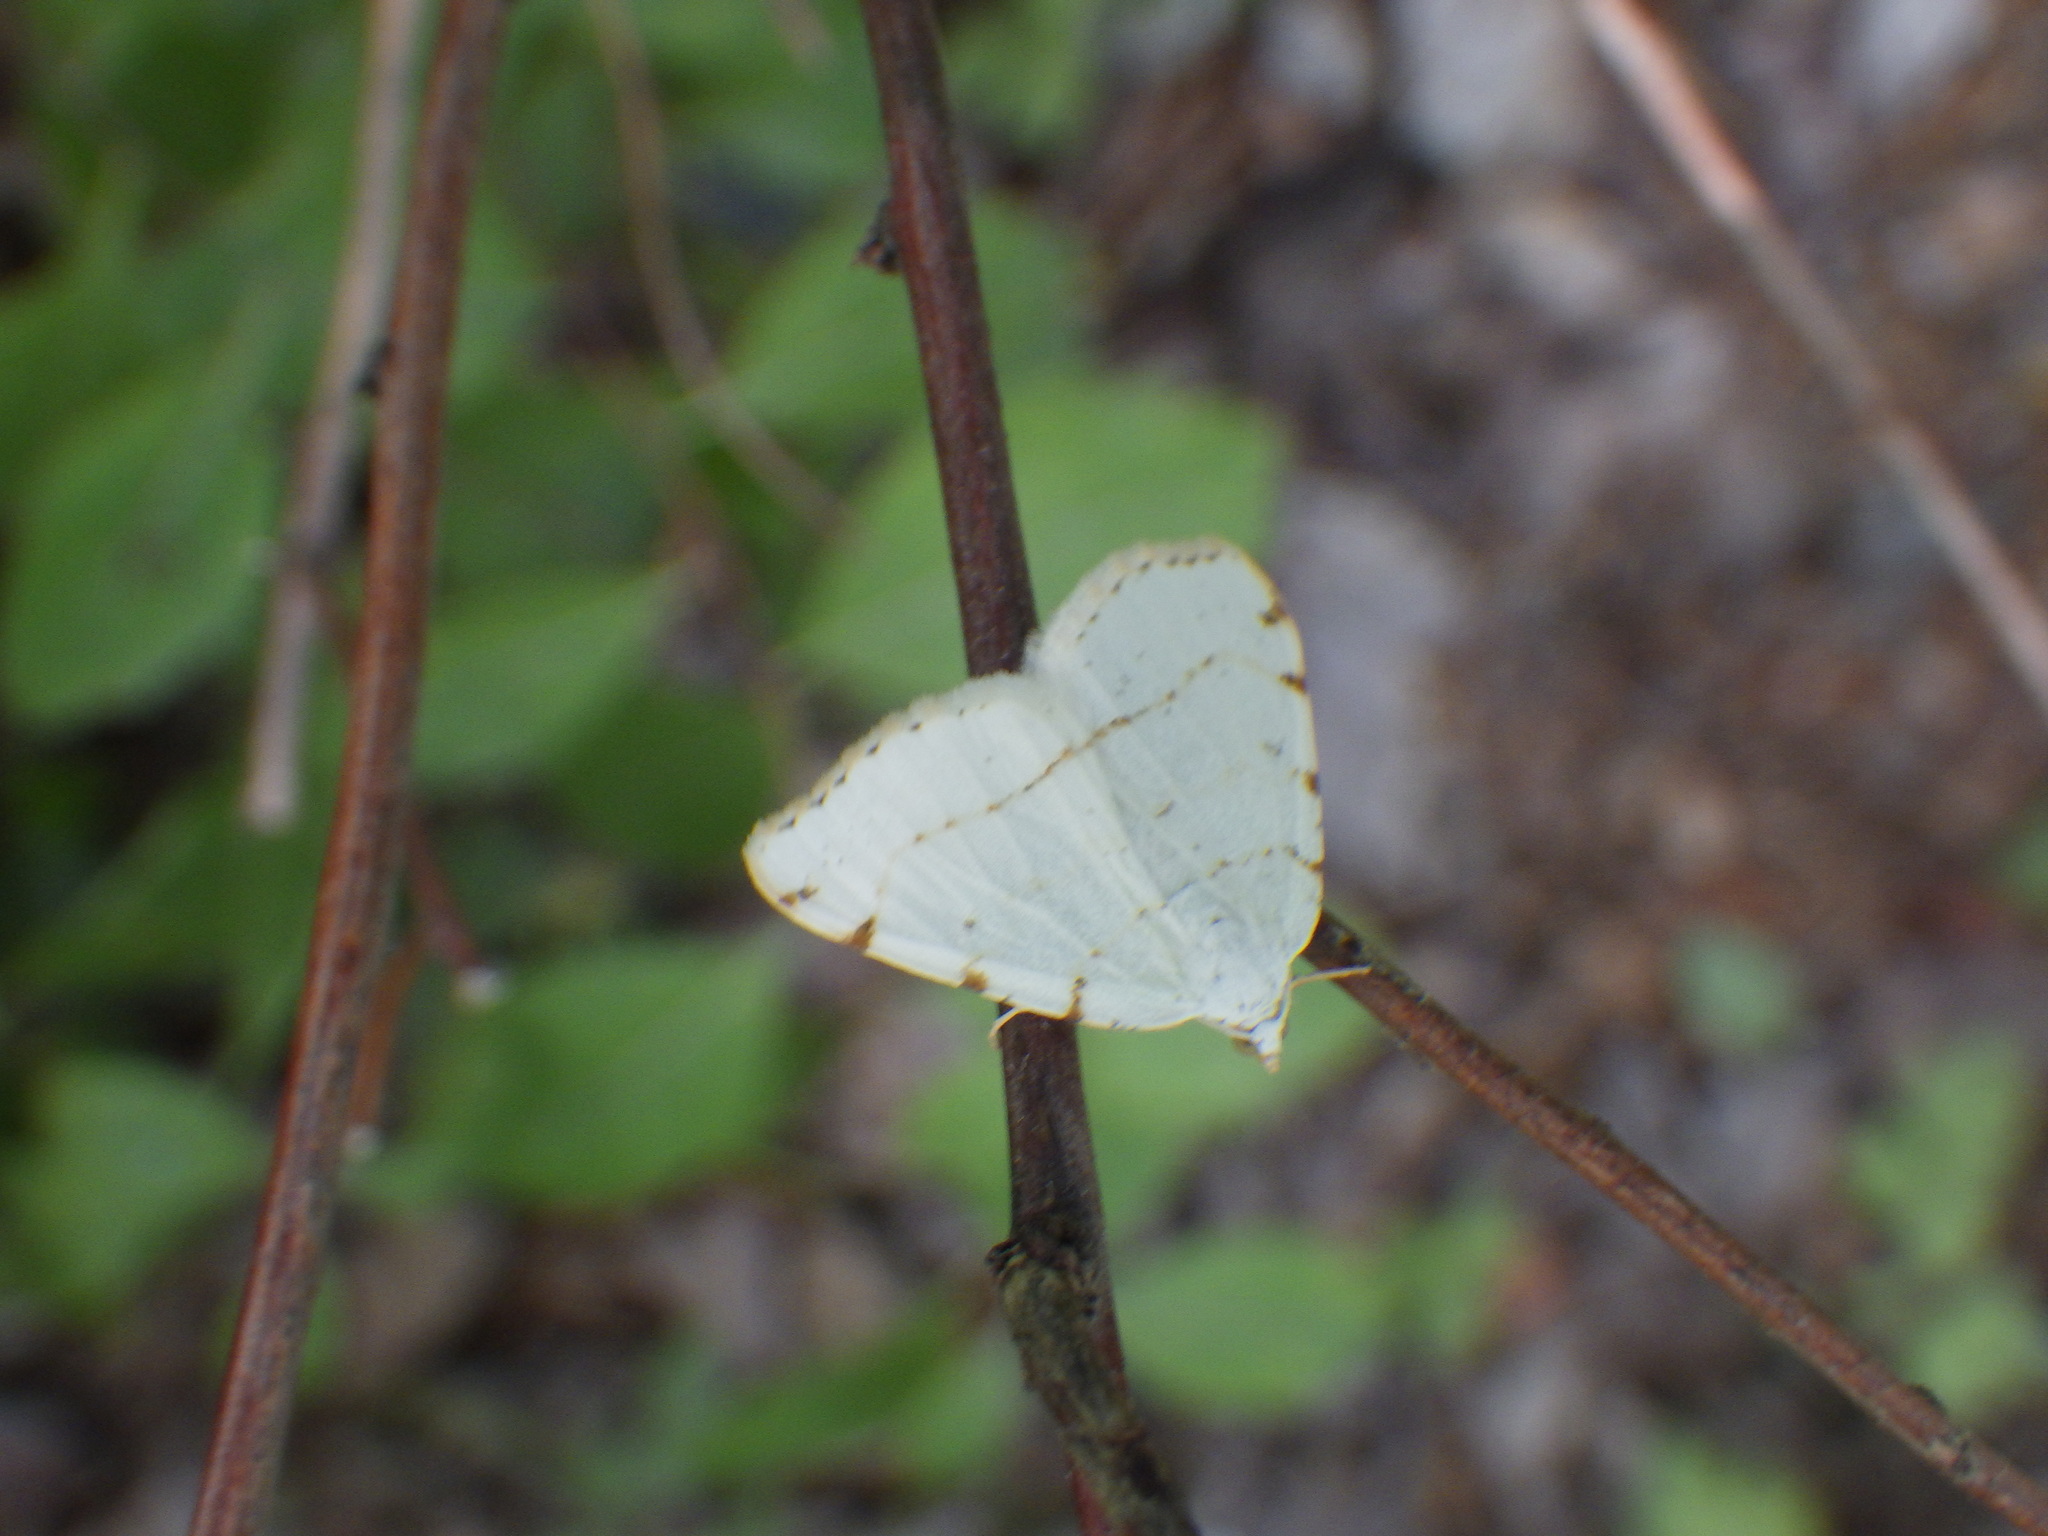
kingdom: Animalia
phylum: Arthropoda
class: Insecta
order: Lepidoptera
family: Geometridae
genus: Macaria
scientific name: Macaria pustularia
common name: Lesser maple spanworm moth
